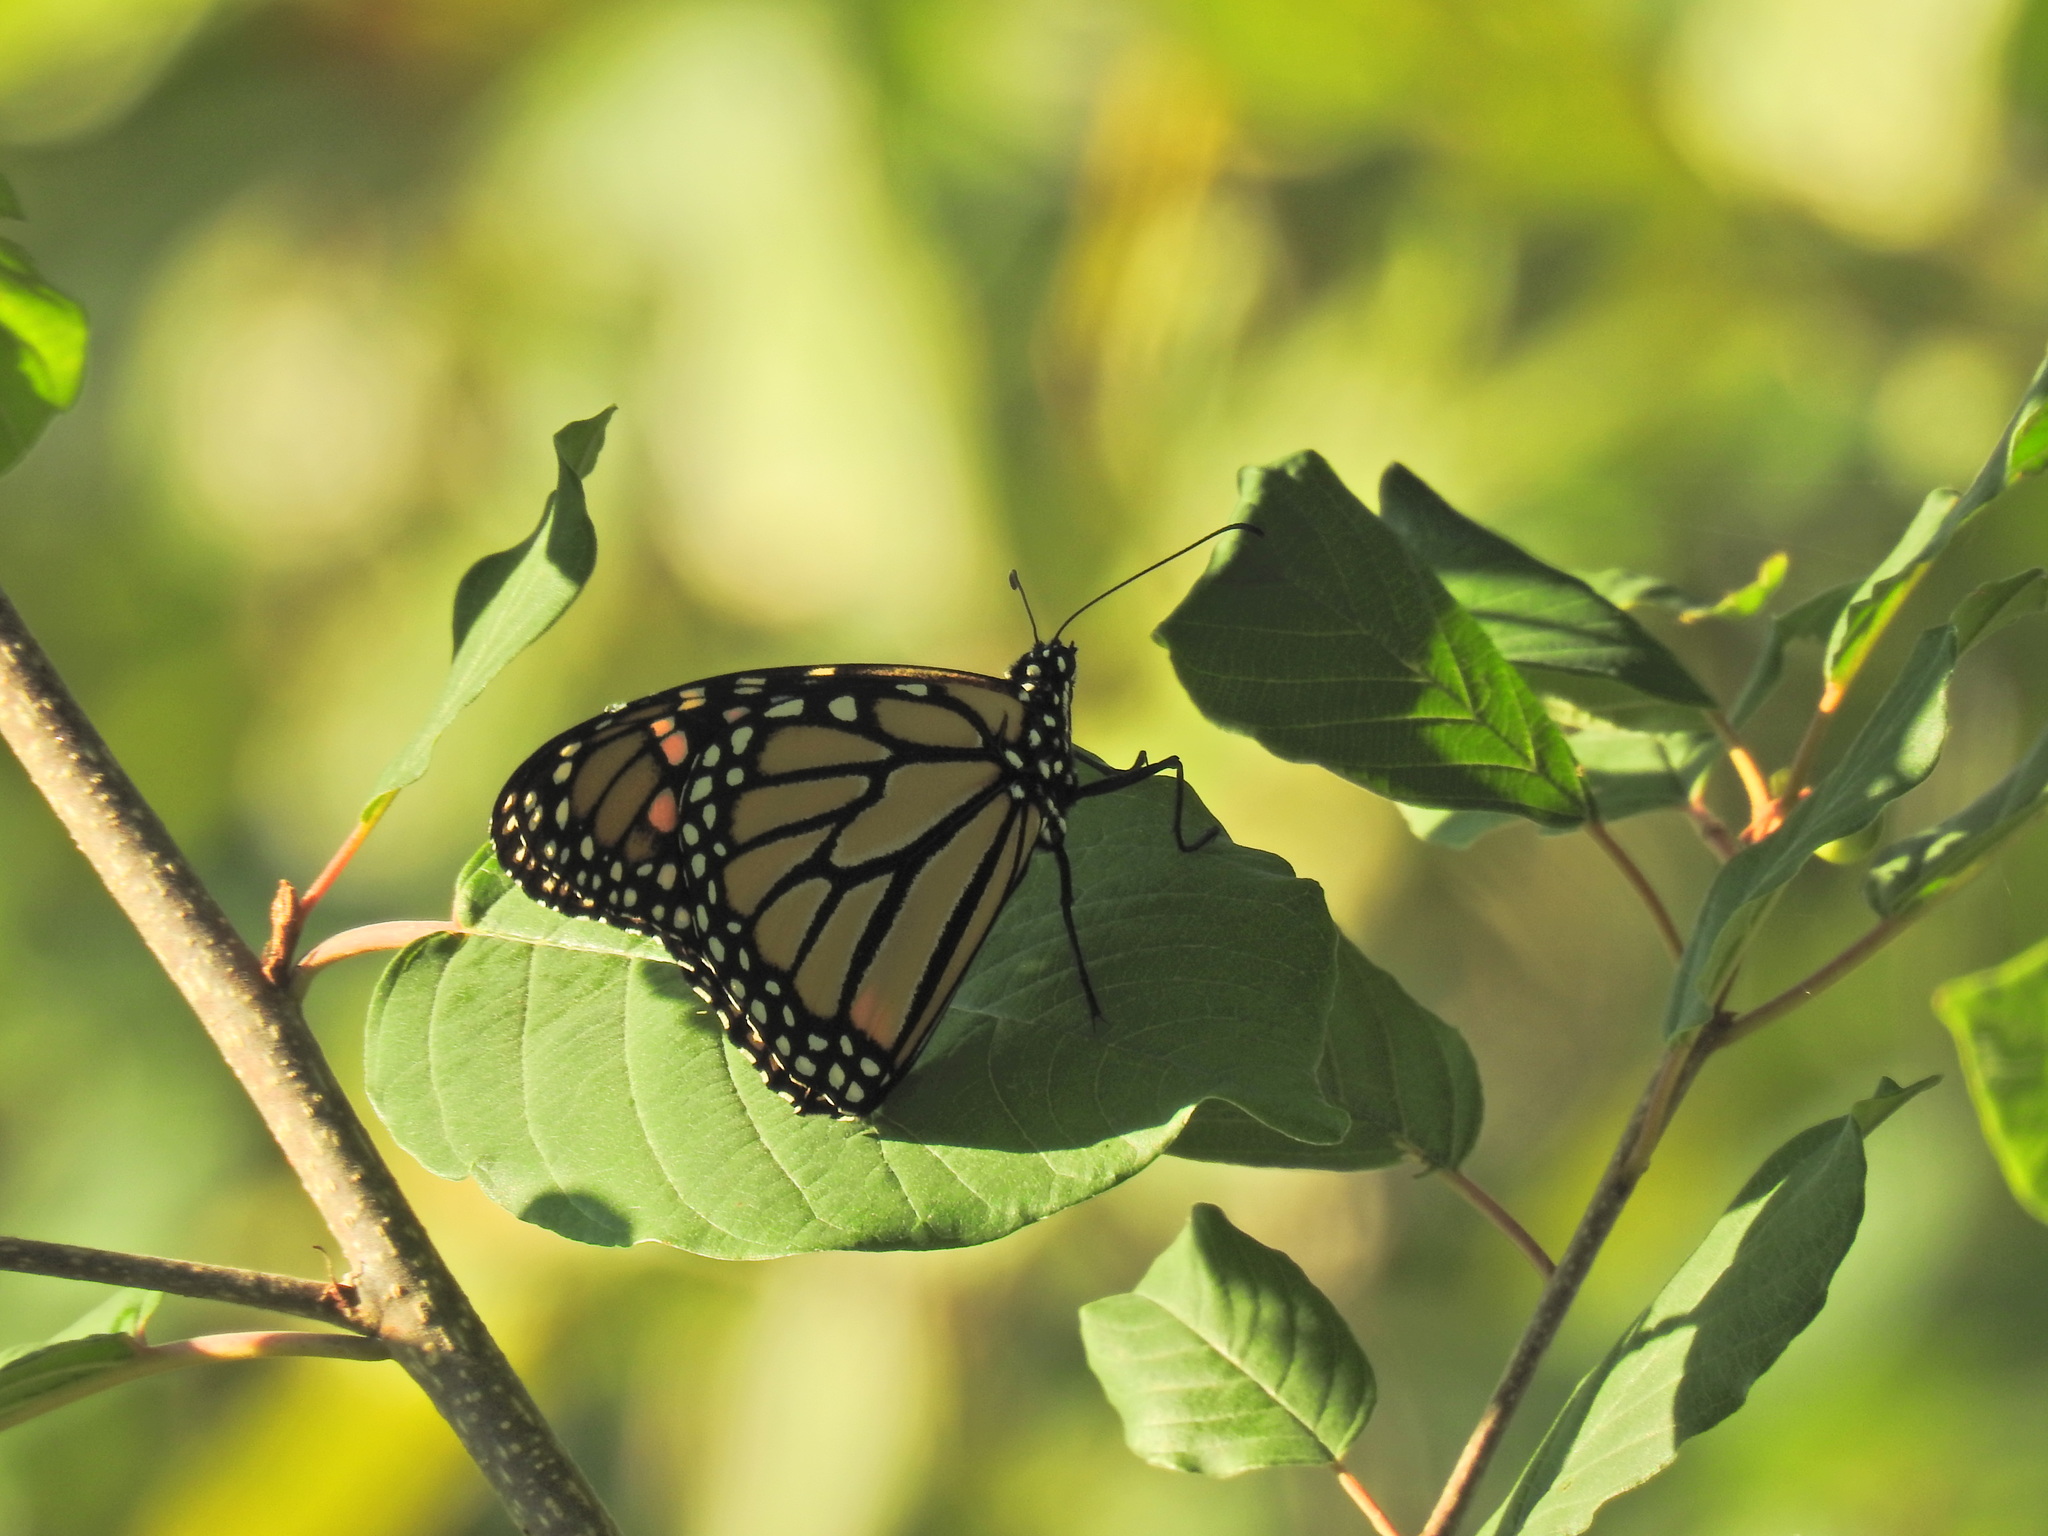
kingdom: Animalia
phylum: Arthropoda
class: Insecta
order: Lepidoptera
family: Nymphalidae
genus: Danaus
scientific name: Danaus plexippus
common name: Monarch
